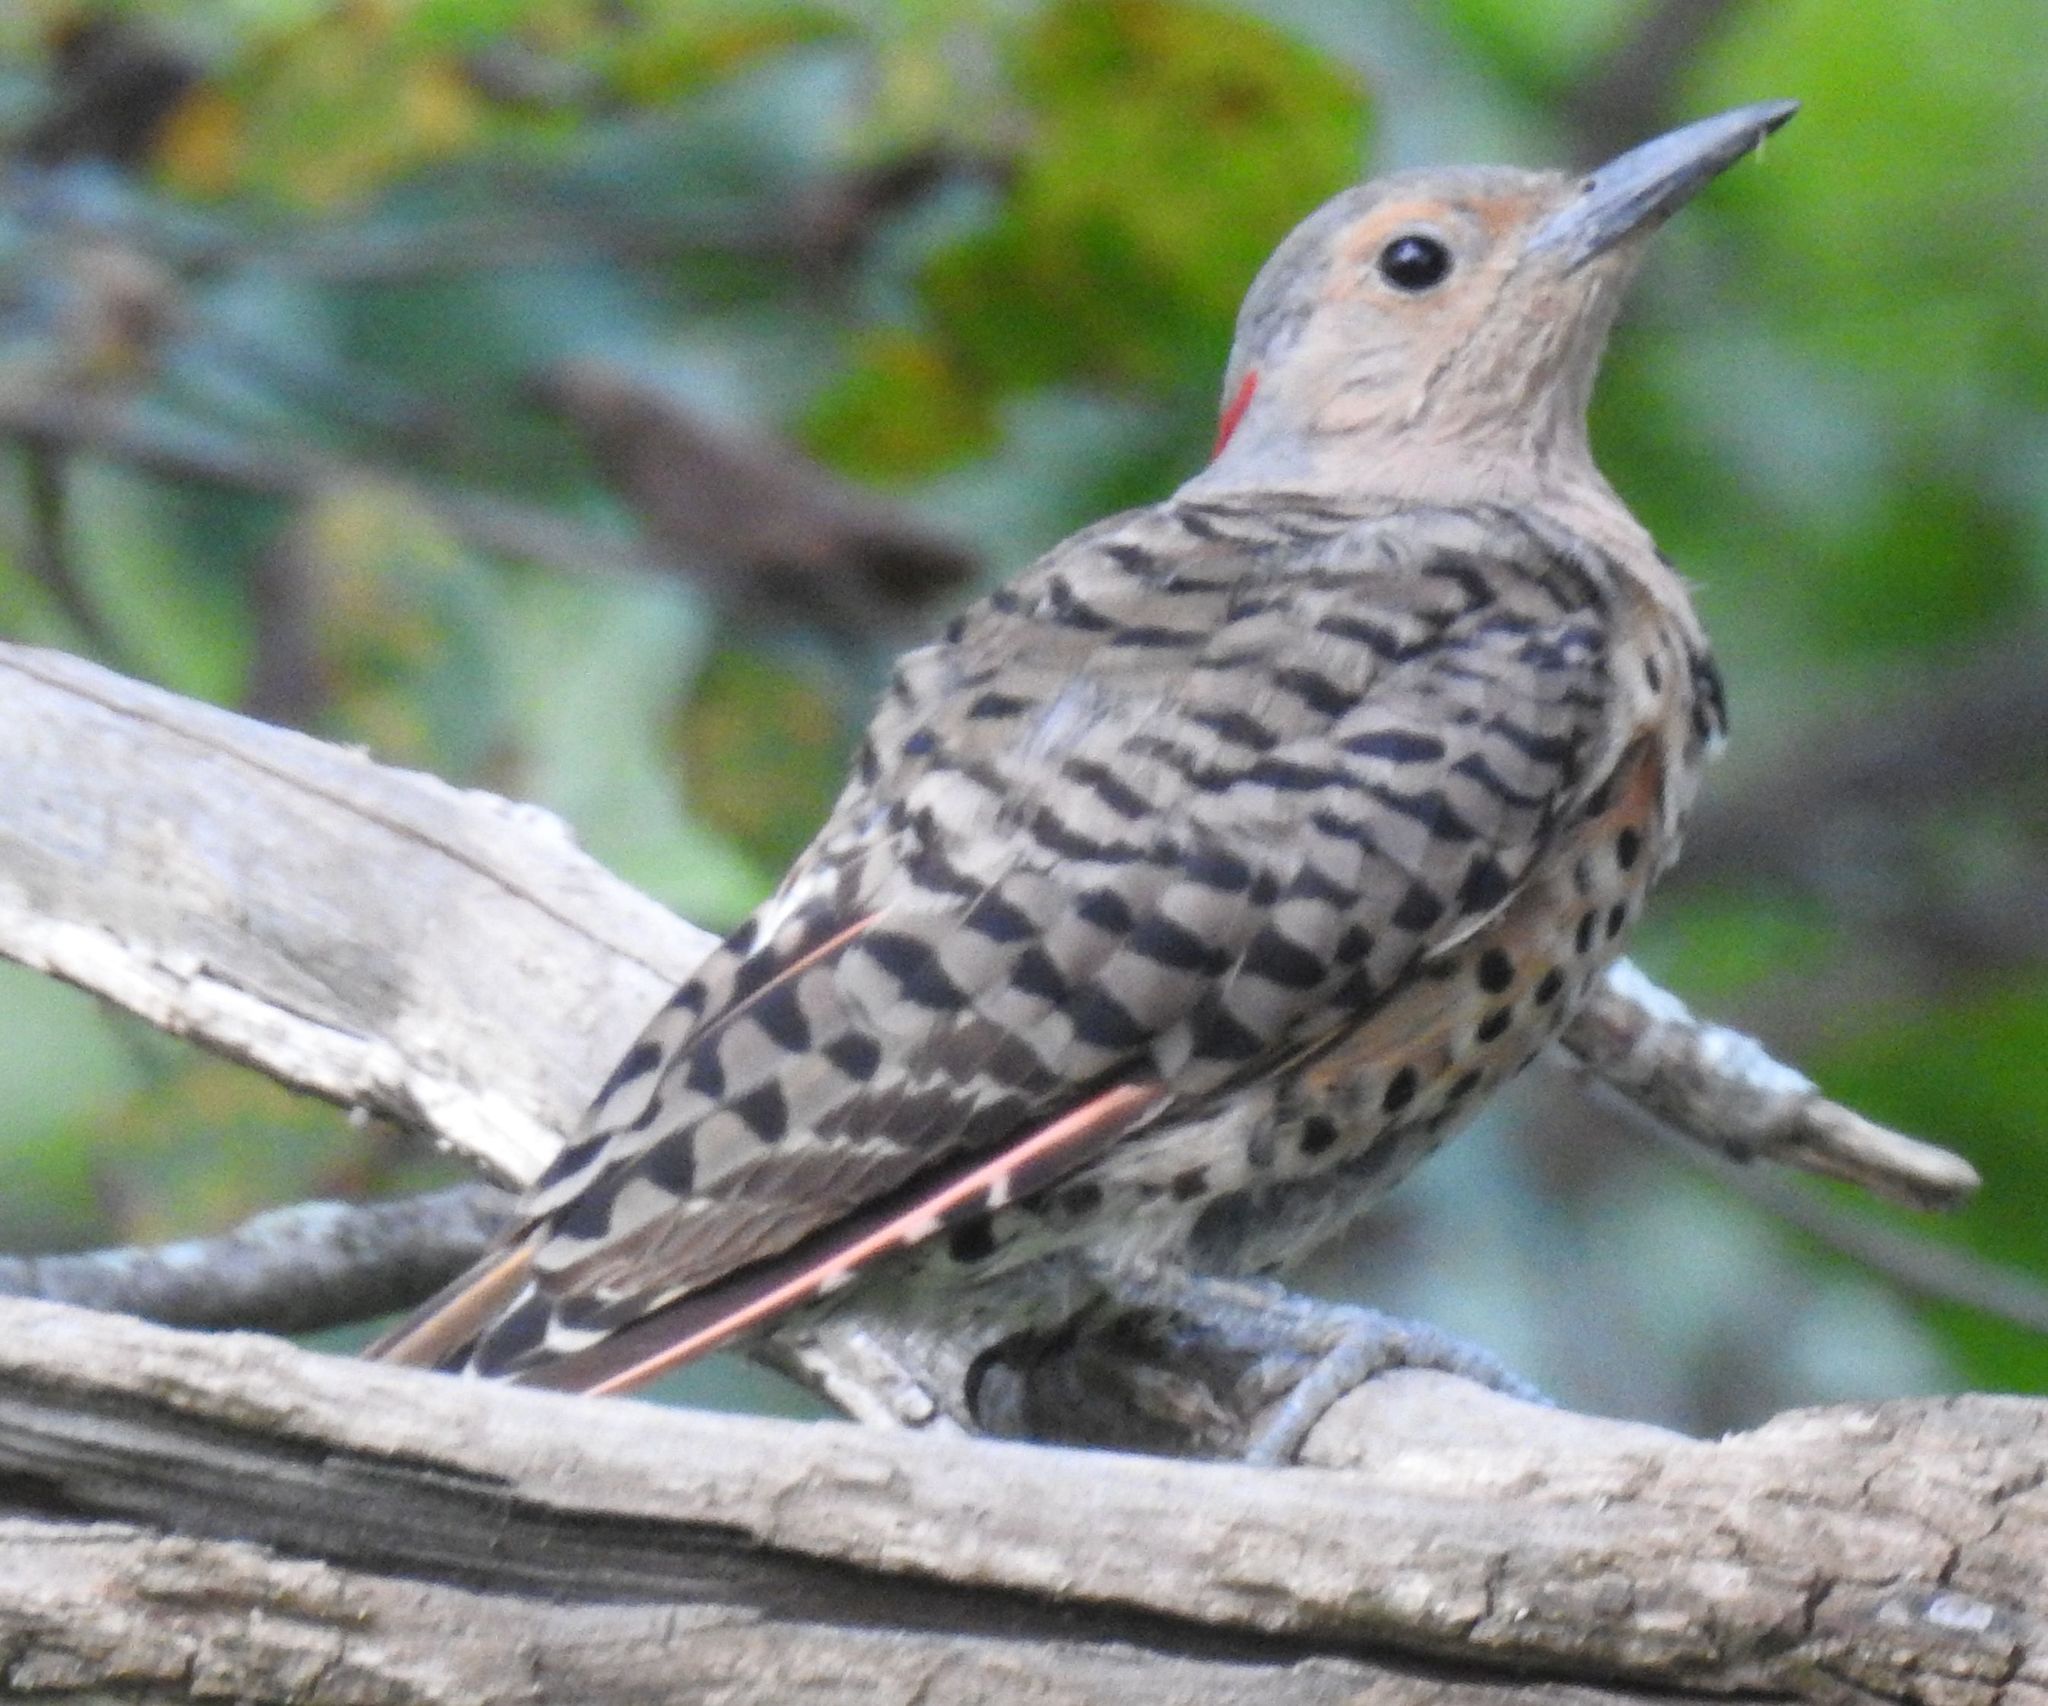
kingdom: Animalia
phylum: Chordata
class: Aves
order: Piciformes
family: Picidae
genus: Colaptes
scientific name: Colaptes auratus
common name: Northern flicker
